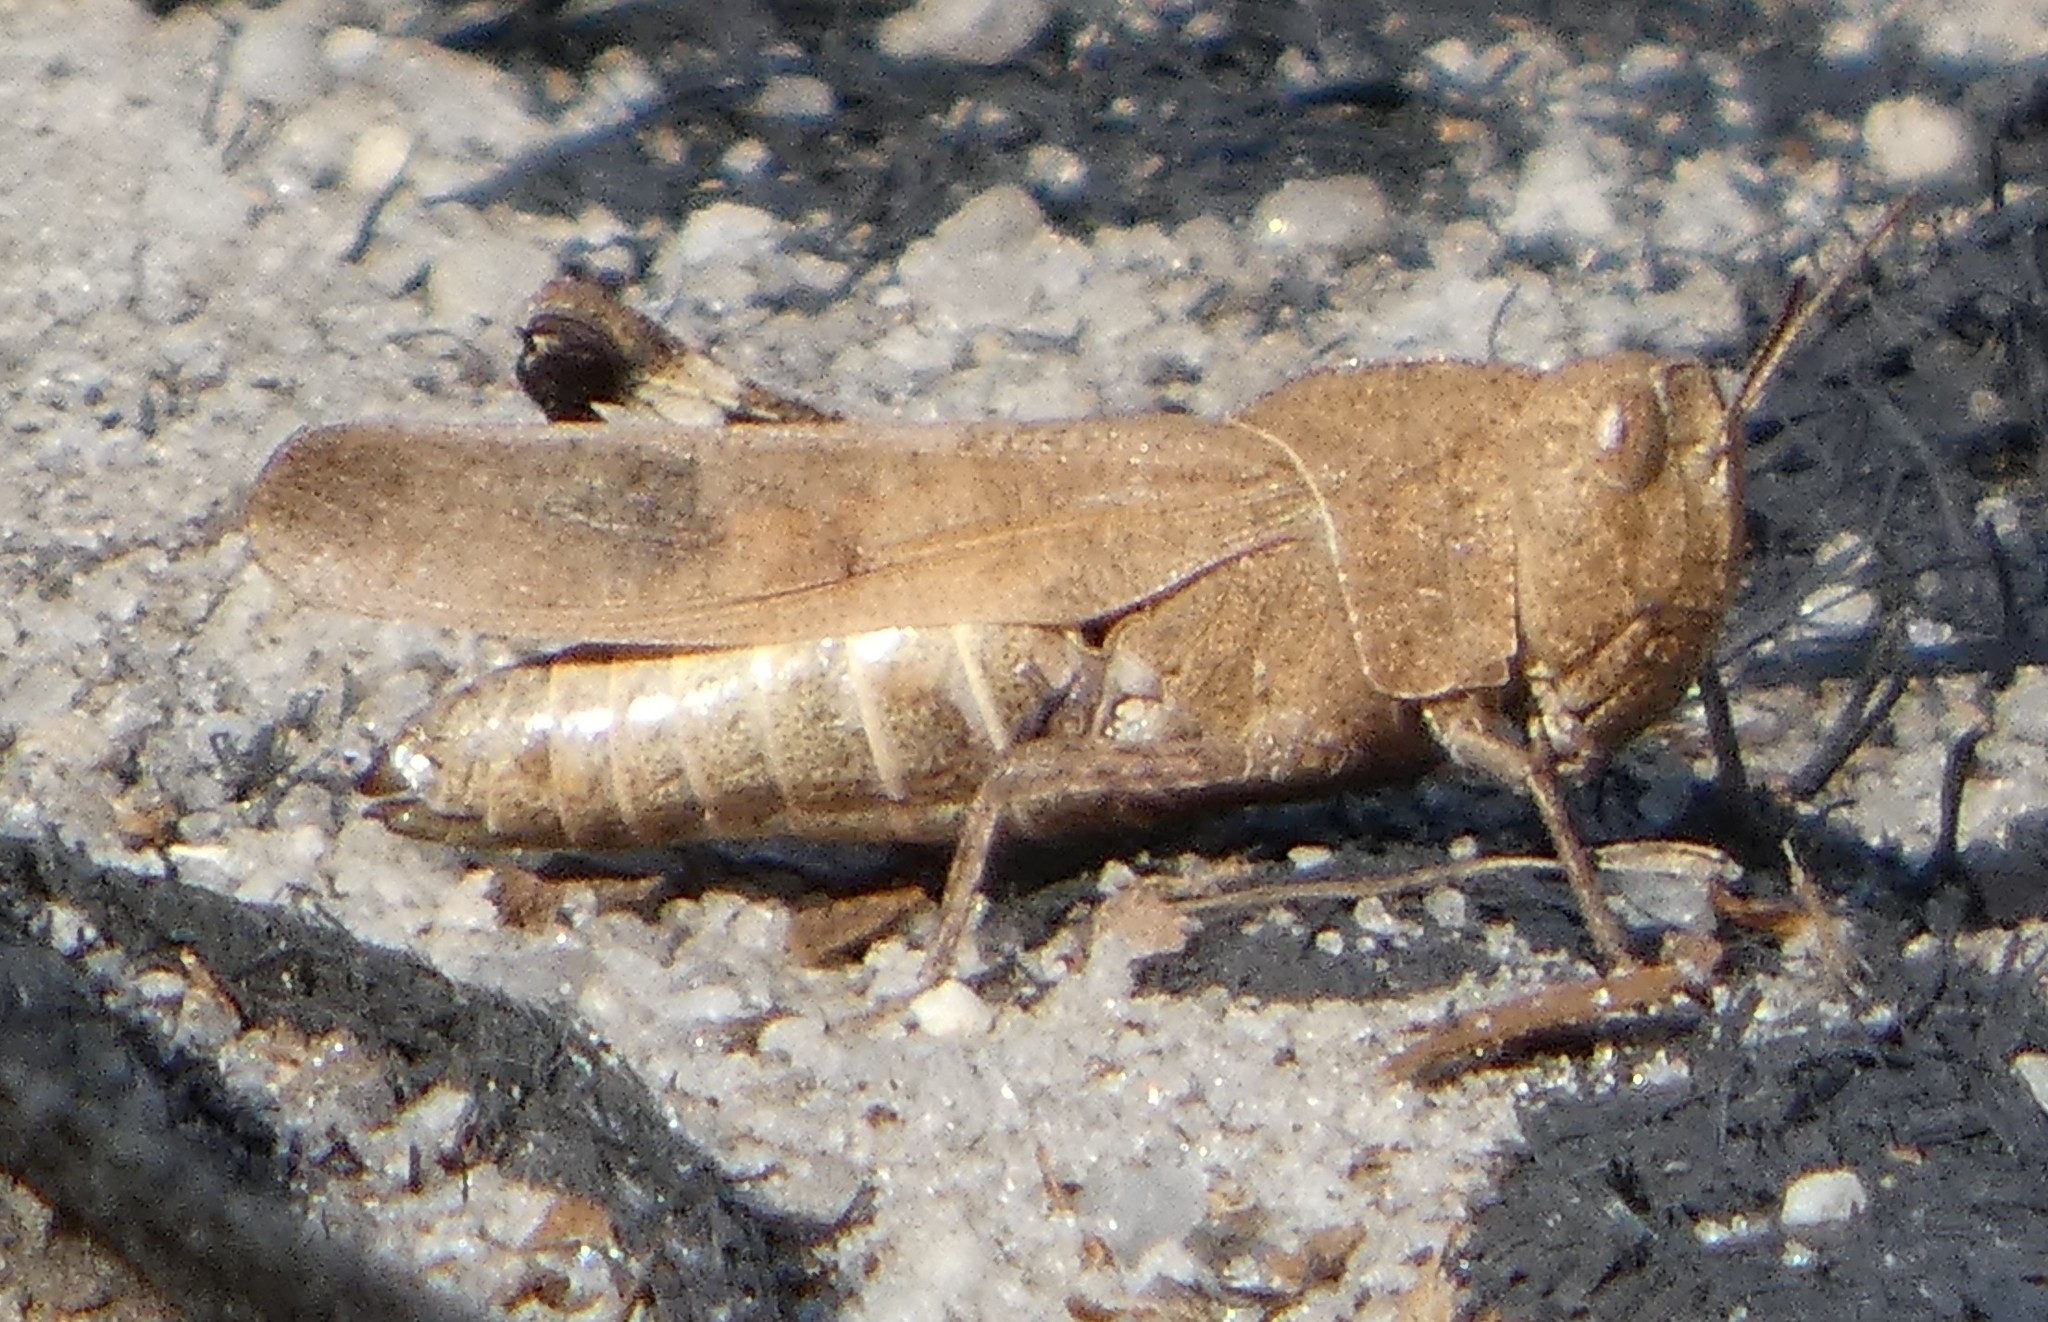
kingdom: Animalia
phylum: Arthropoda
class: Insecta
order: Orthoptera
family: Acrididae
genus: Arphia
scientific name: Arphia sulphurea
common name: Spring yellow-winged locust
